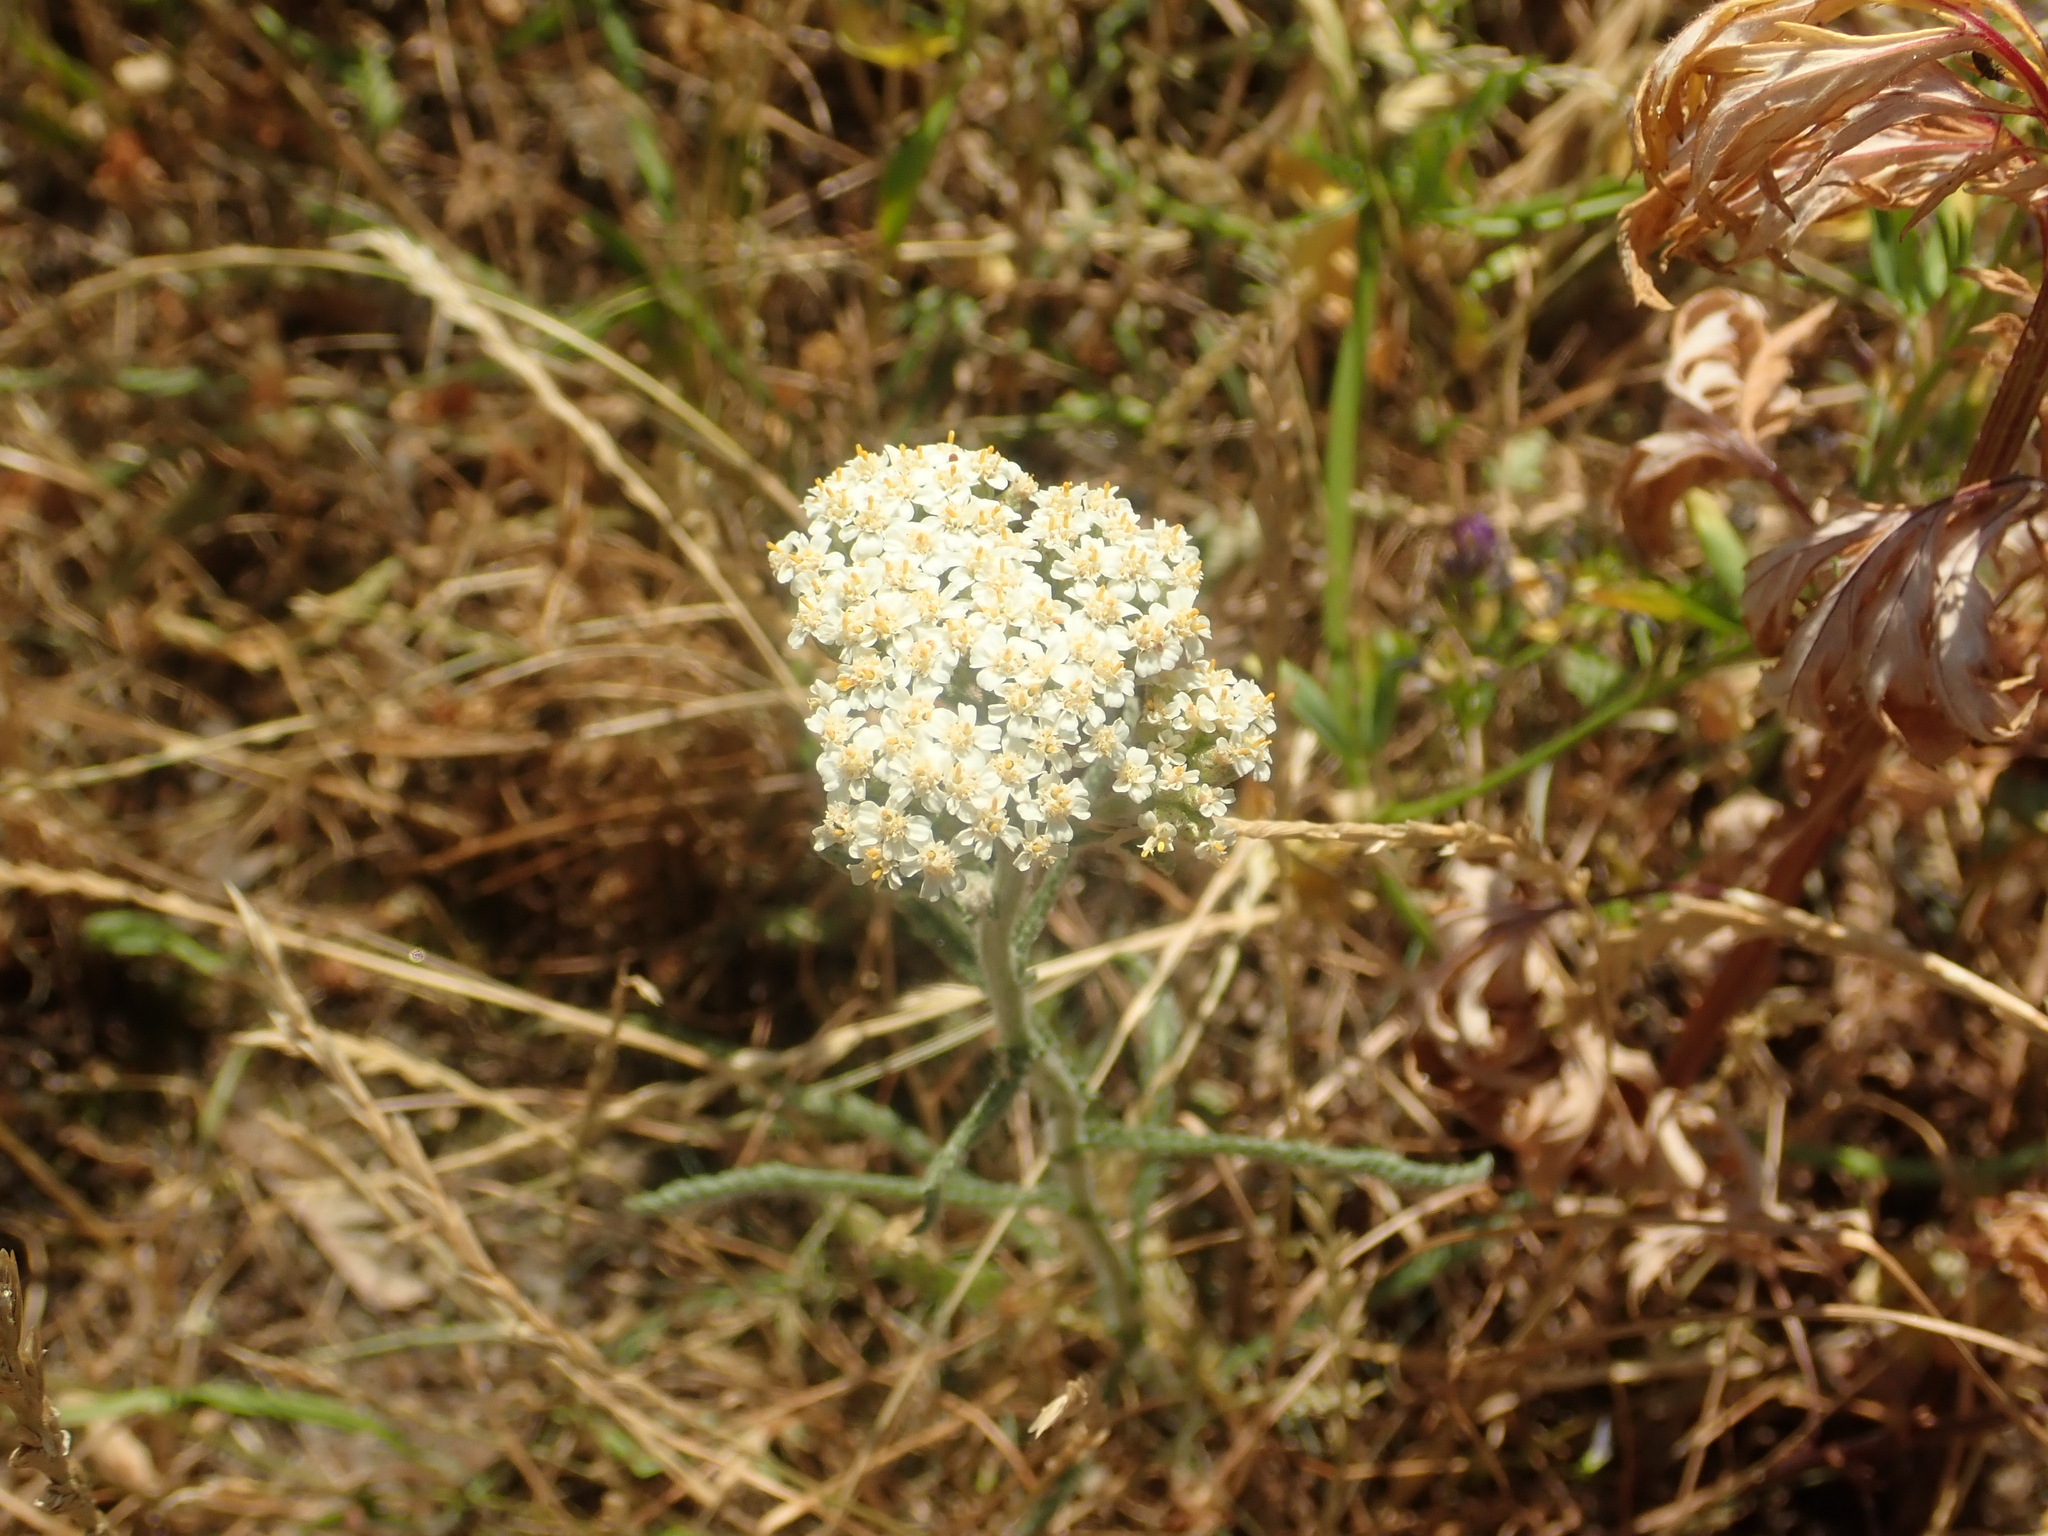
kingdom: Plantae
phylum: Tracheophyta
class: Magnoliopsida
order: Asterales
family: Asteraceae
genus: Achillea
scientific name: Achillea millefolium
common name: Yarrow
